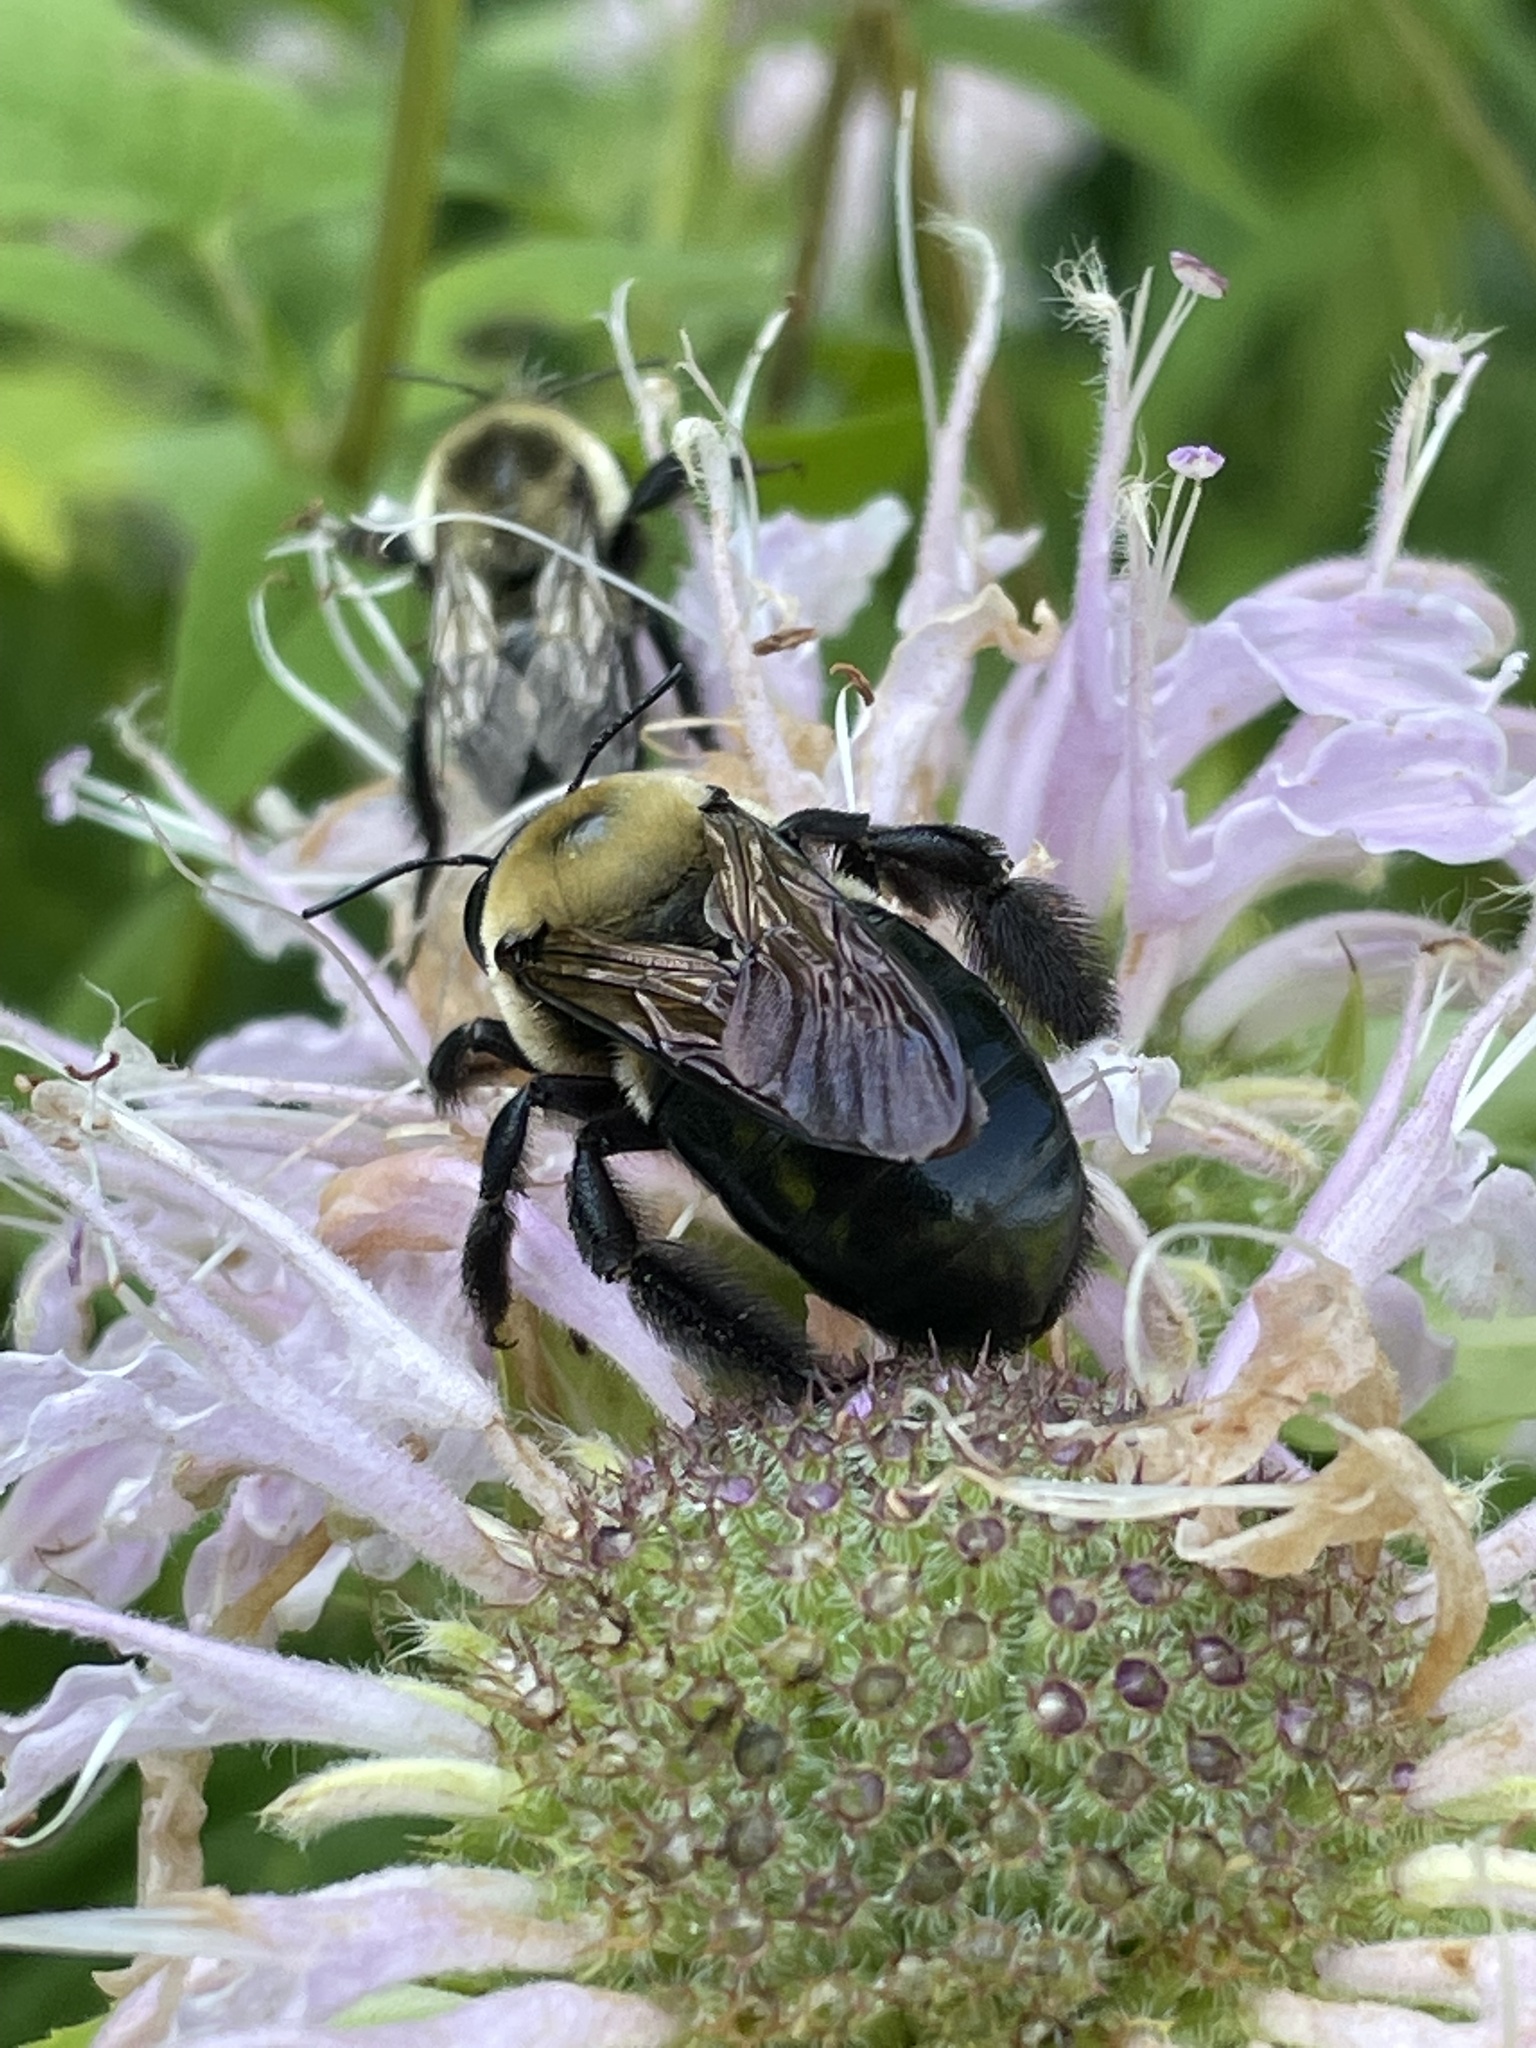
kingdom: Animalia
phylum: Arthropoda
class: Insecta
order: Hymenoptera
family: Apidae
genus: Xylocopa
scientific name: Xylocopa virginica
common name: Carpenter bee
